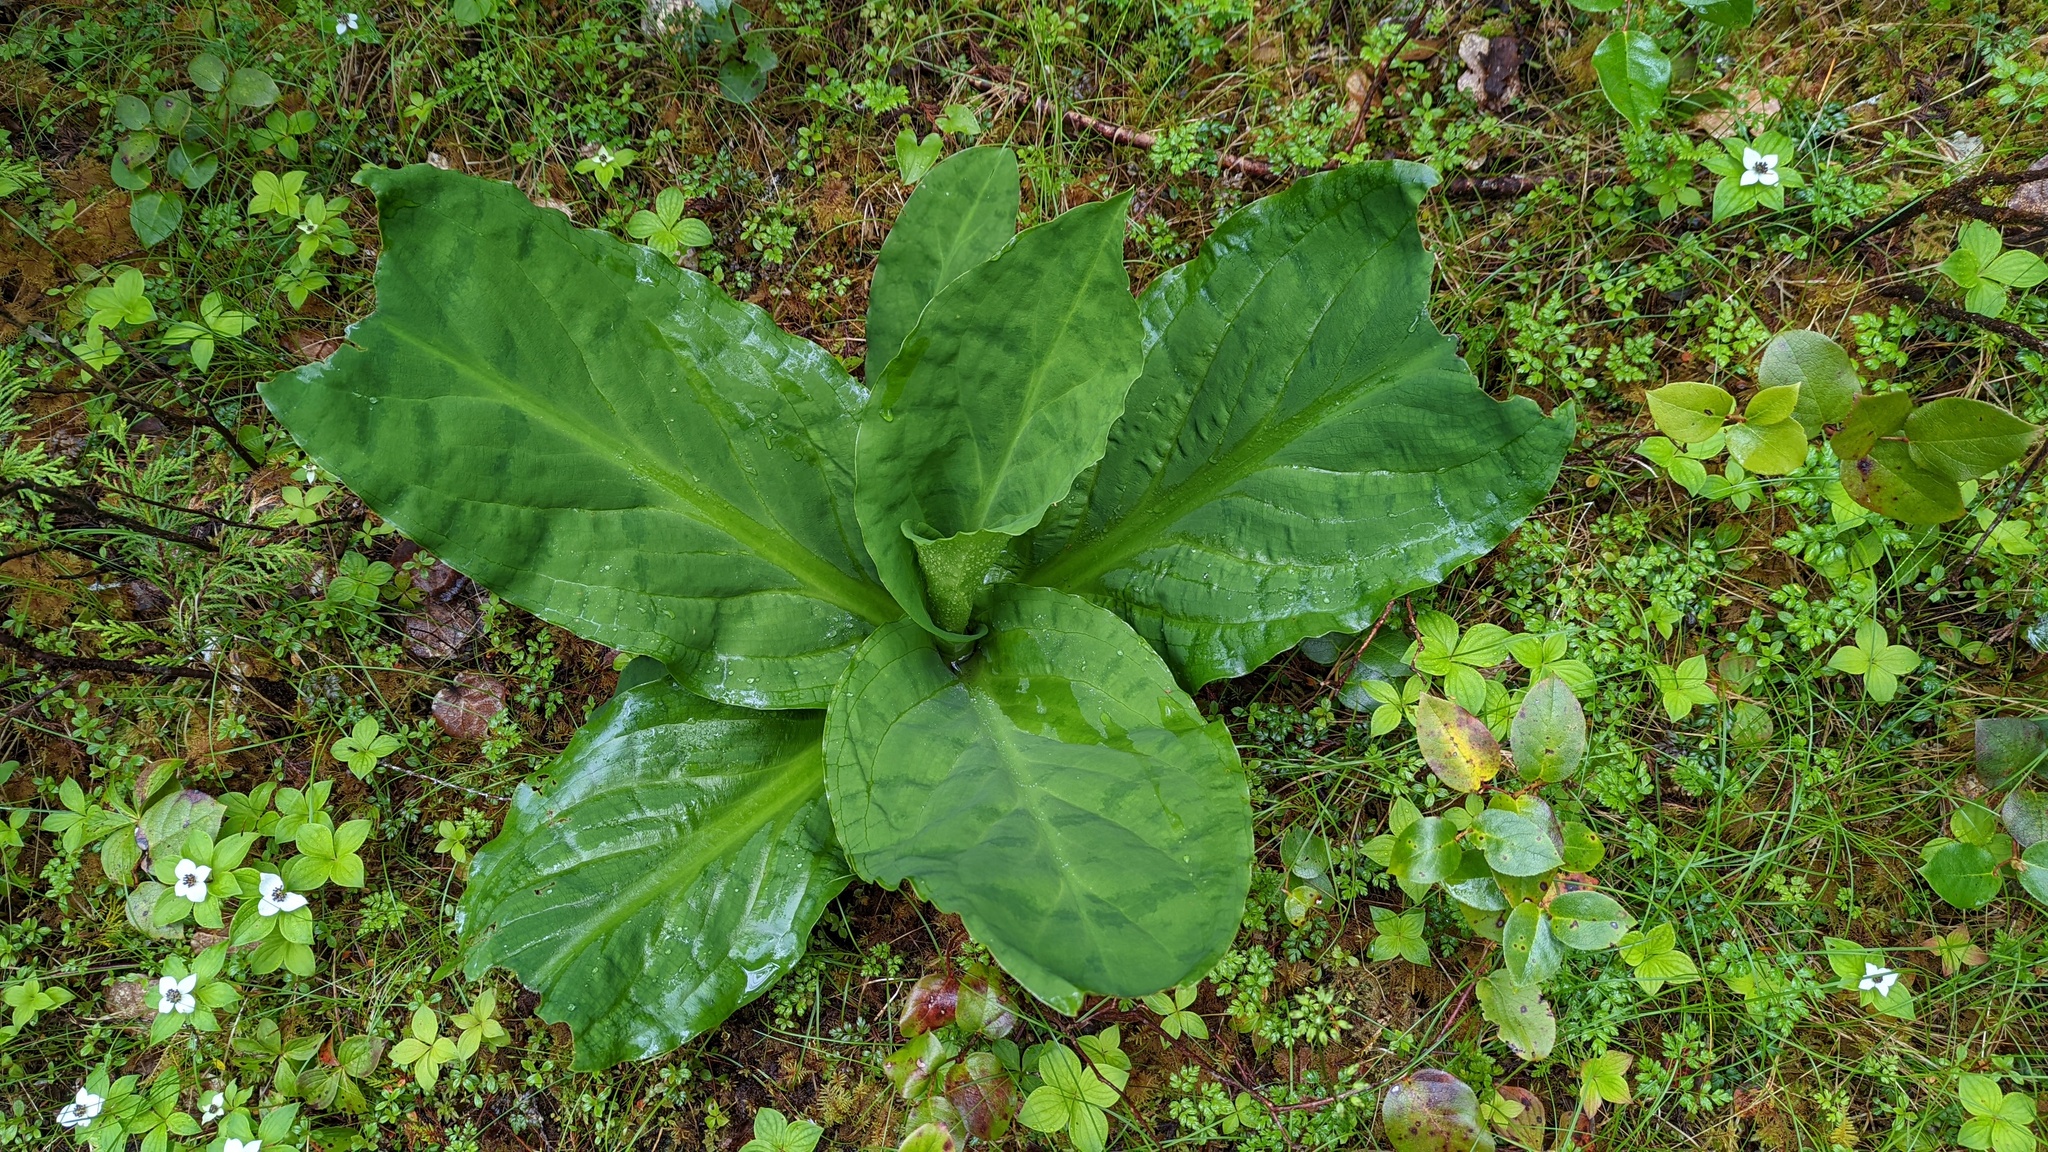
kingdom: Plantae
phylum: Tracheophyta
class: Liliopsida
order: Alismatales
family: Araceae
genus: Lysichiton
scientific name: Lysichiton americanus
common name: American skunk cabbage
